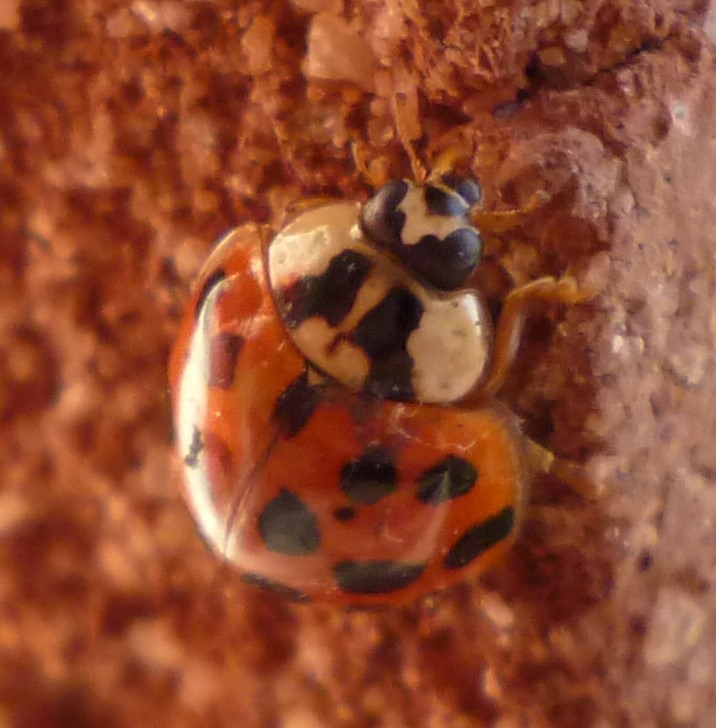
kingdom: Animalia
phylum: Arthropoda
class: Insecta
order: Coleoptera
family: Coccinellidae
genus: Harmonia
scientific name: Harmonia axyridis
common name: Harlequin ladybird
